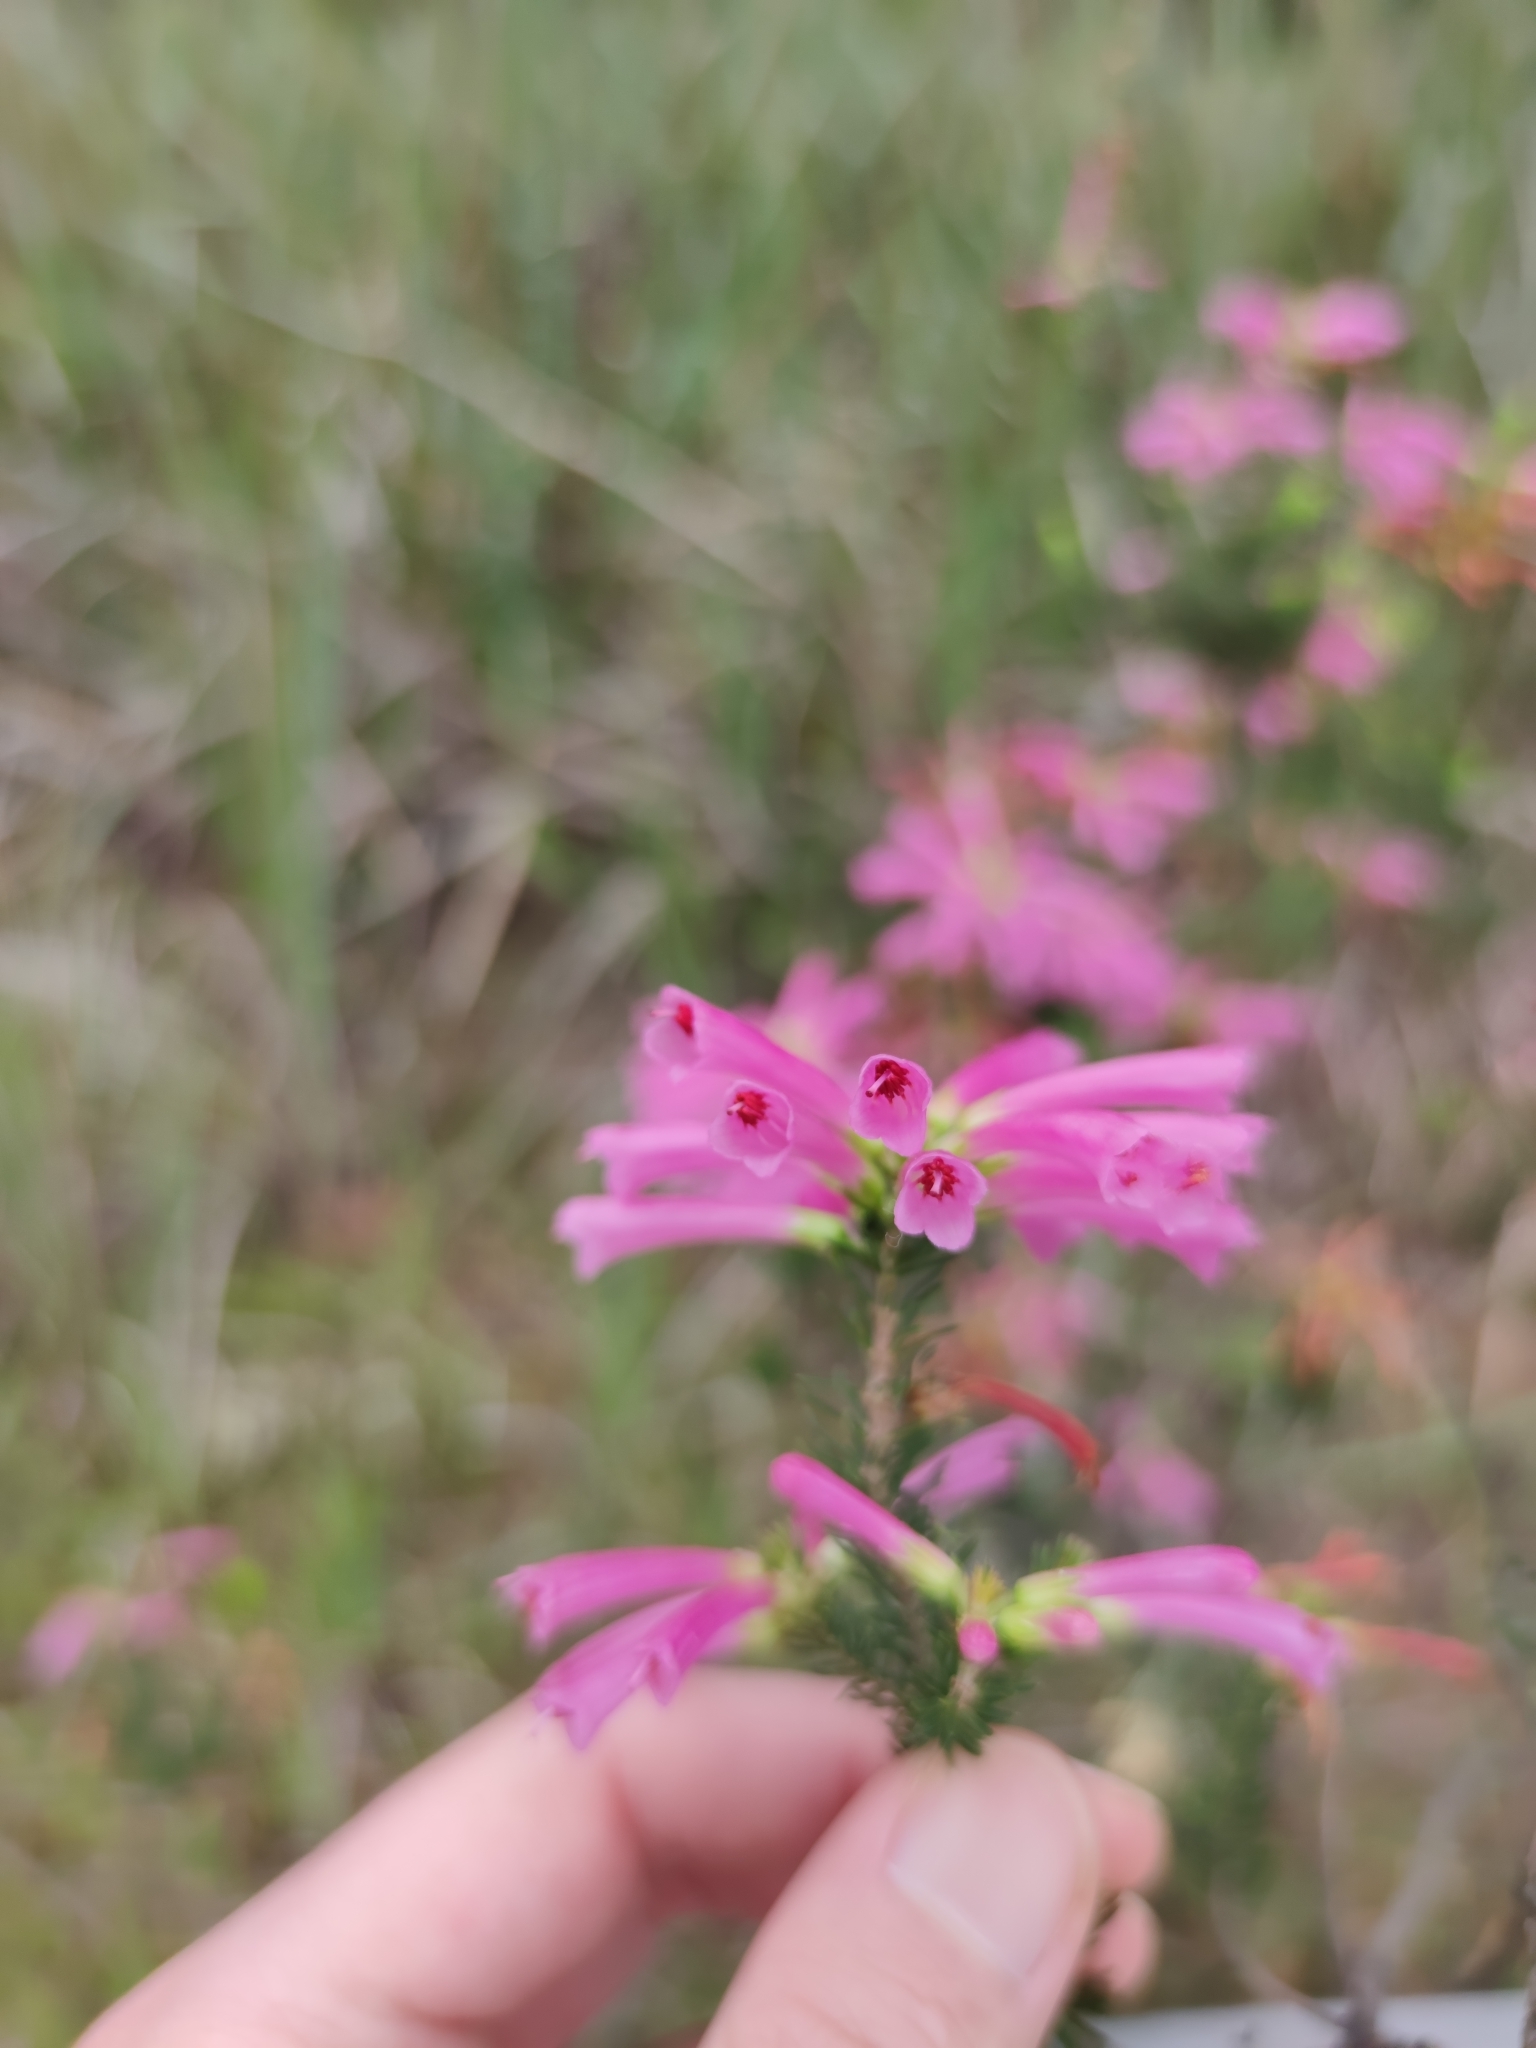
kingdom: Plantae
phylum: Tracheophyta
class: Magnoliopsida
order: Ericales
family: Ericaceae
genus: Erica
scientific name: Erica abietina
